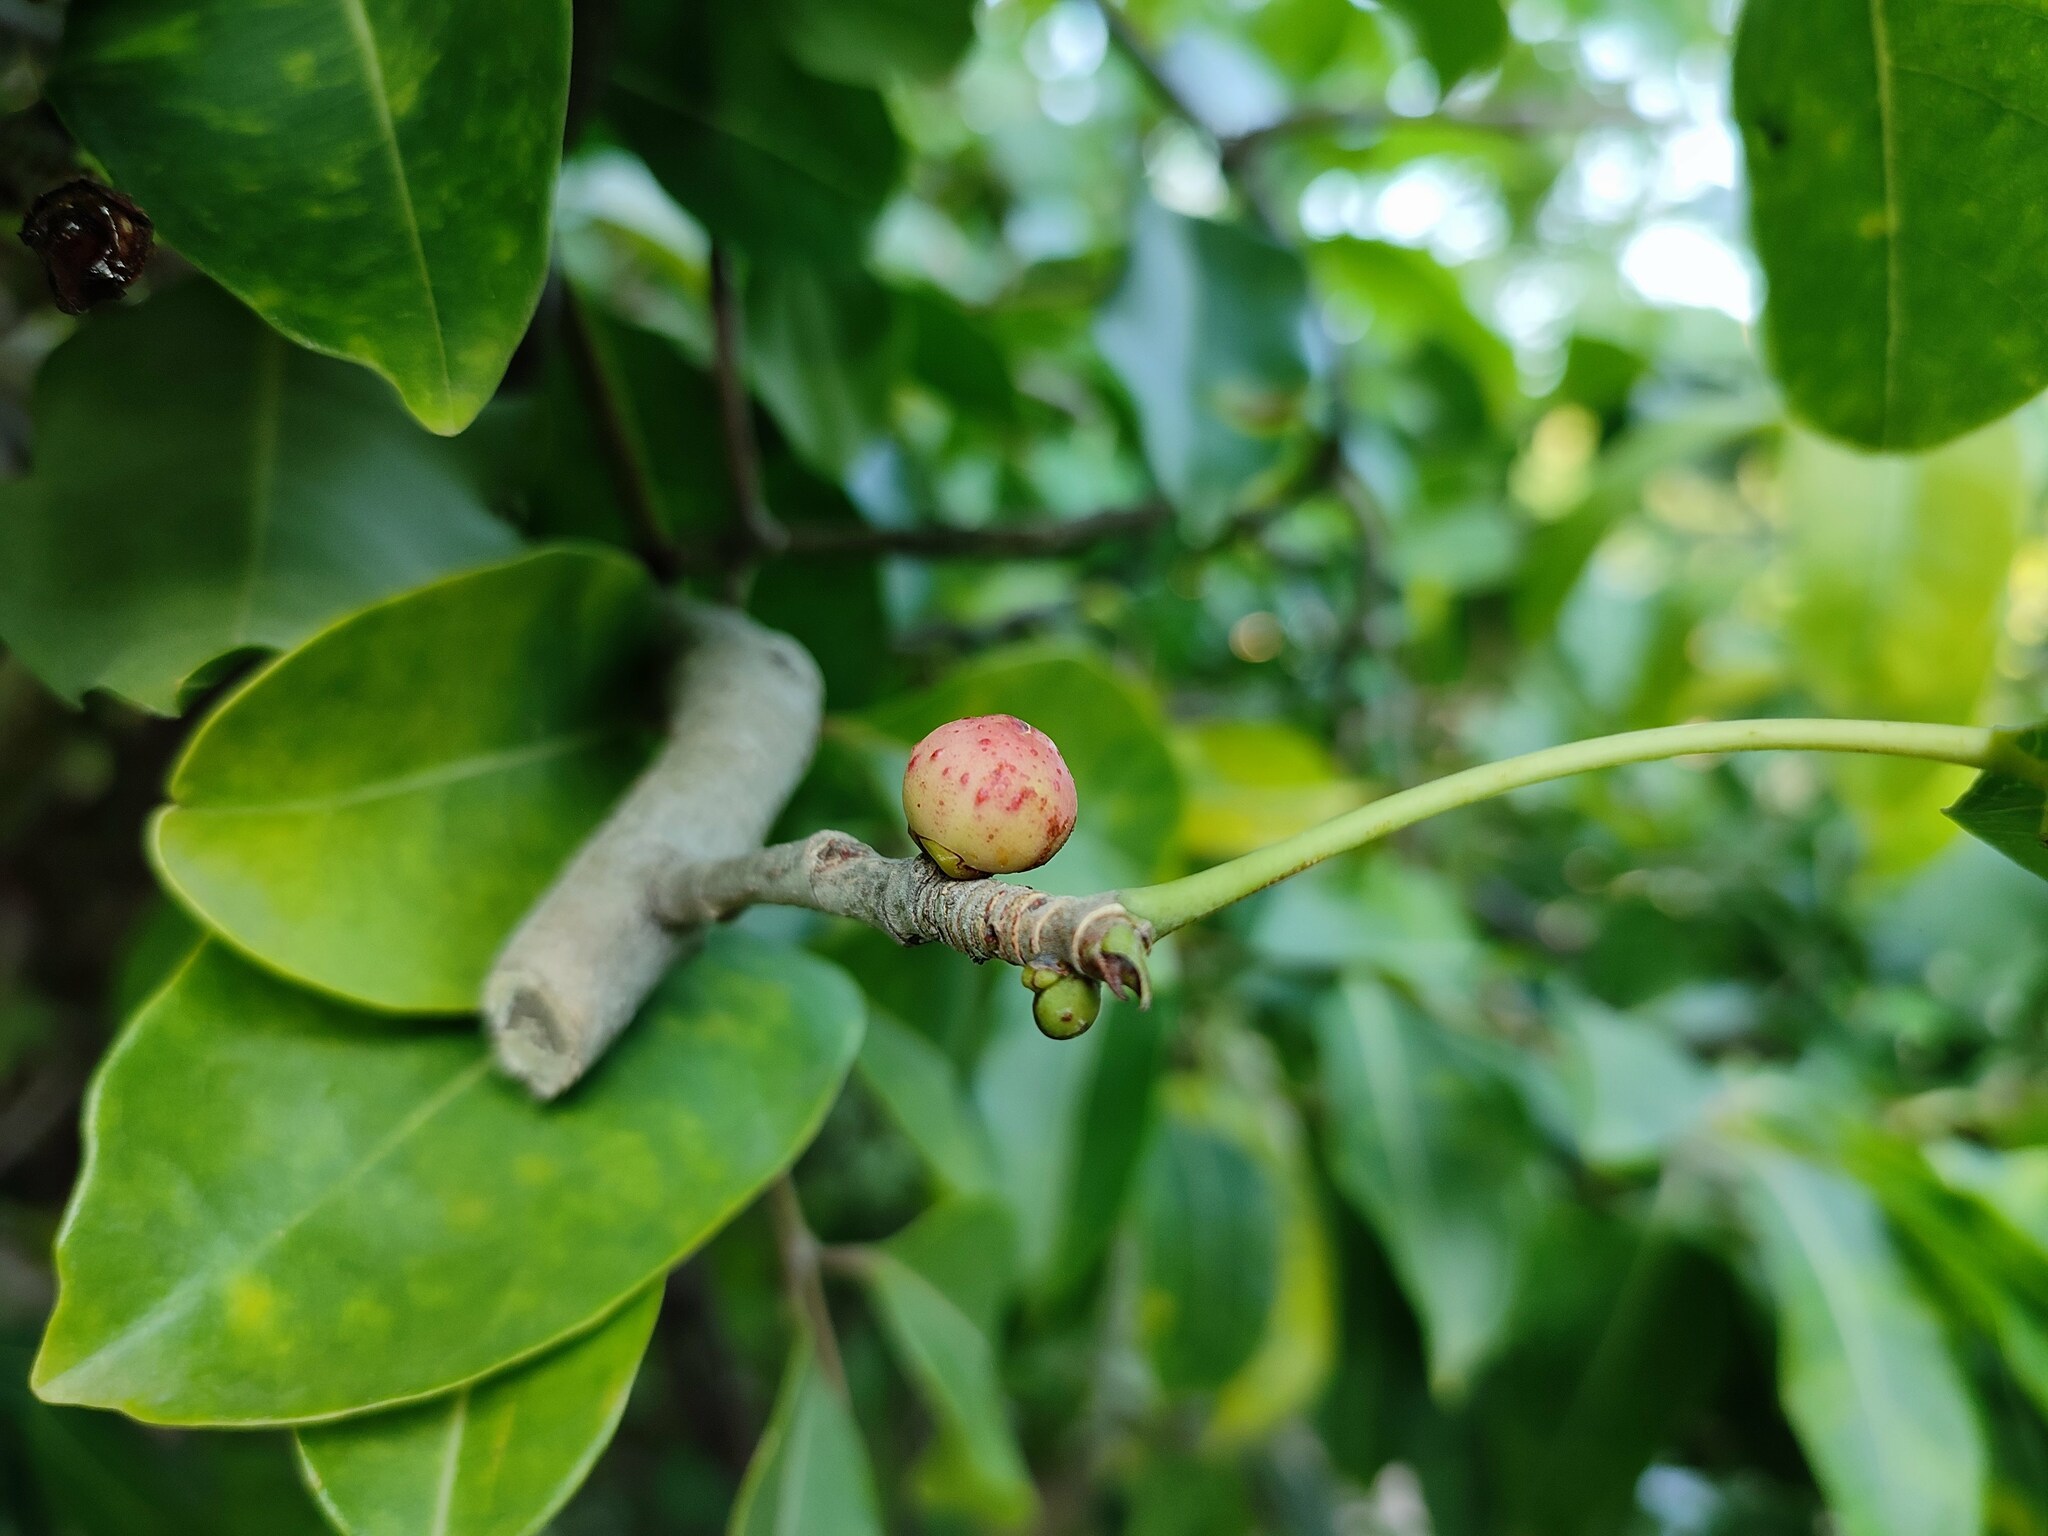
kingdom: Plantae
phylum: Tracheophyta
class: Magnoliopsida
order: Rosales
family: Moraceae
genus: Ficus
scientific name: Ficus religiosa
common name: Bodhi tree
